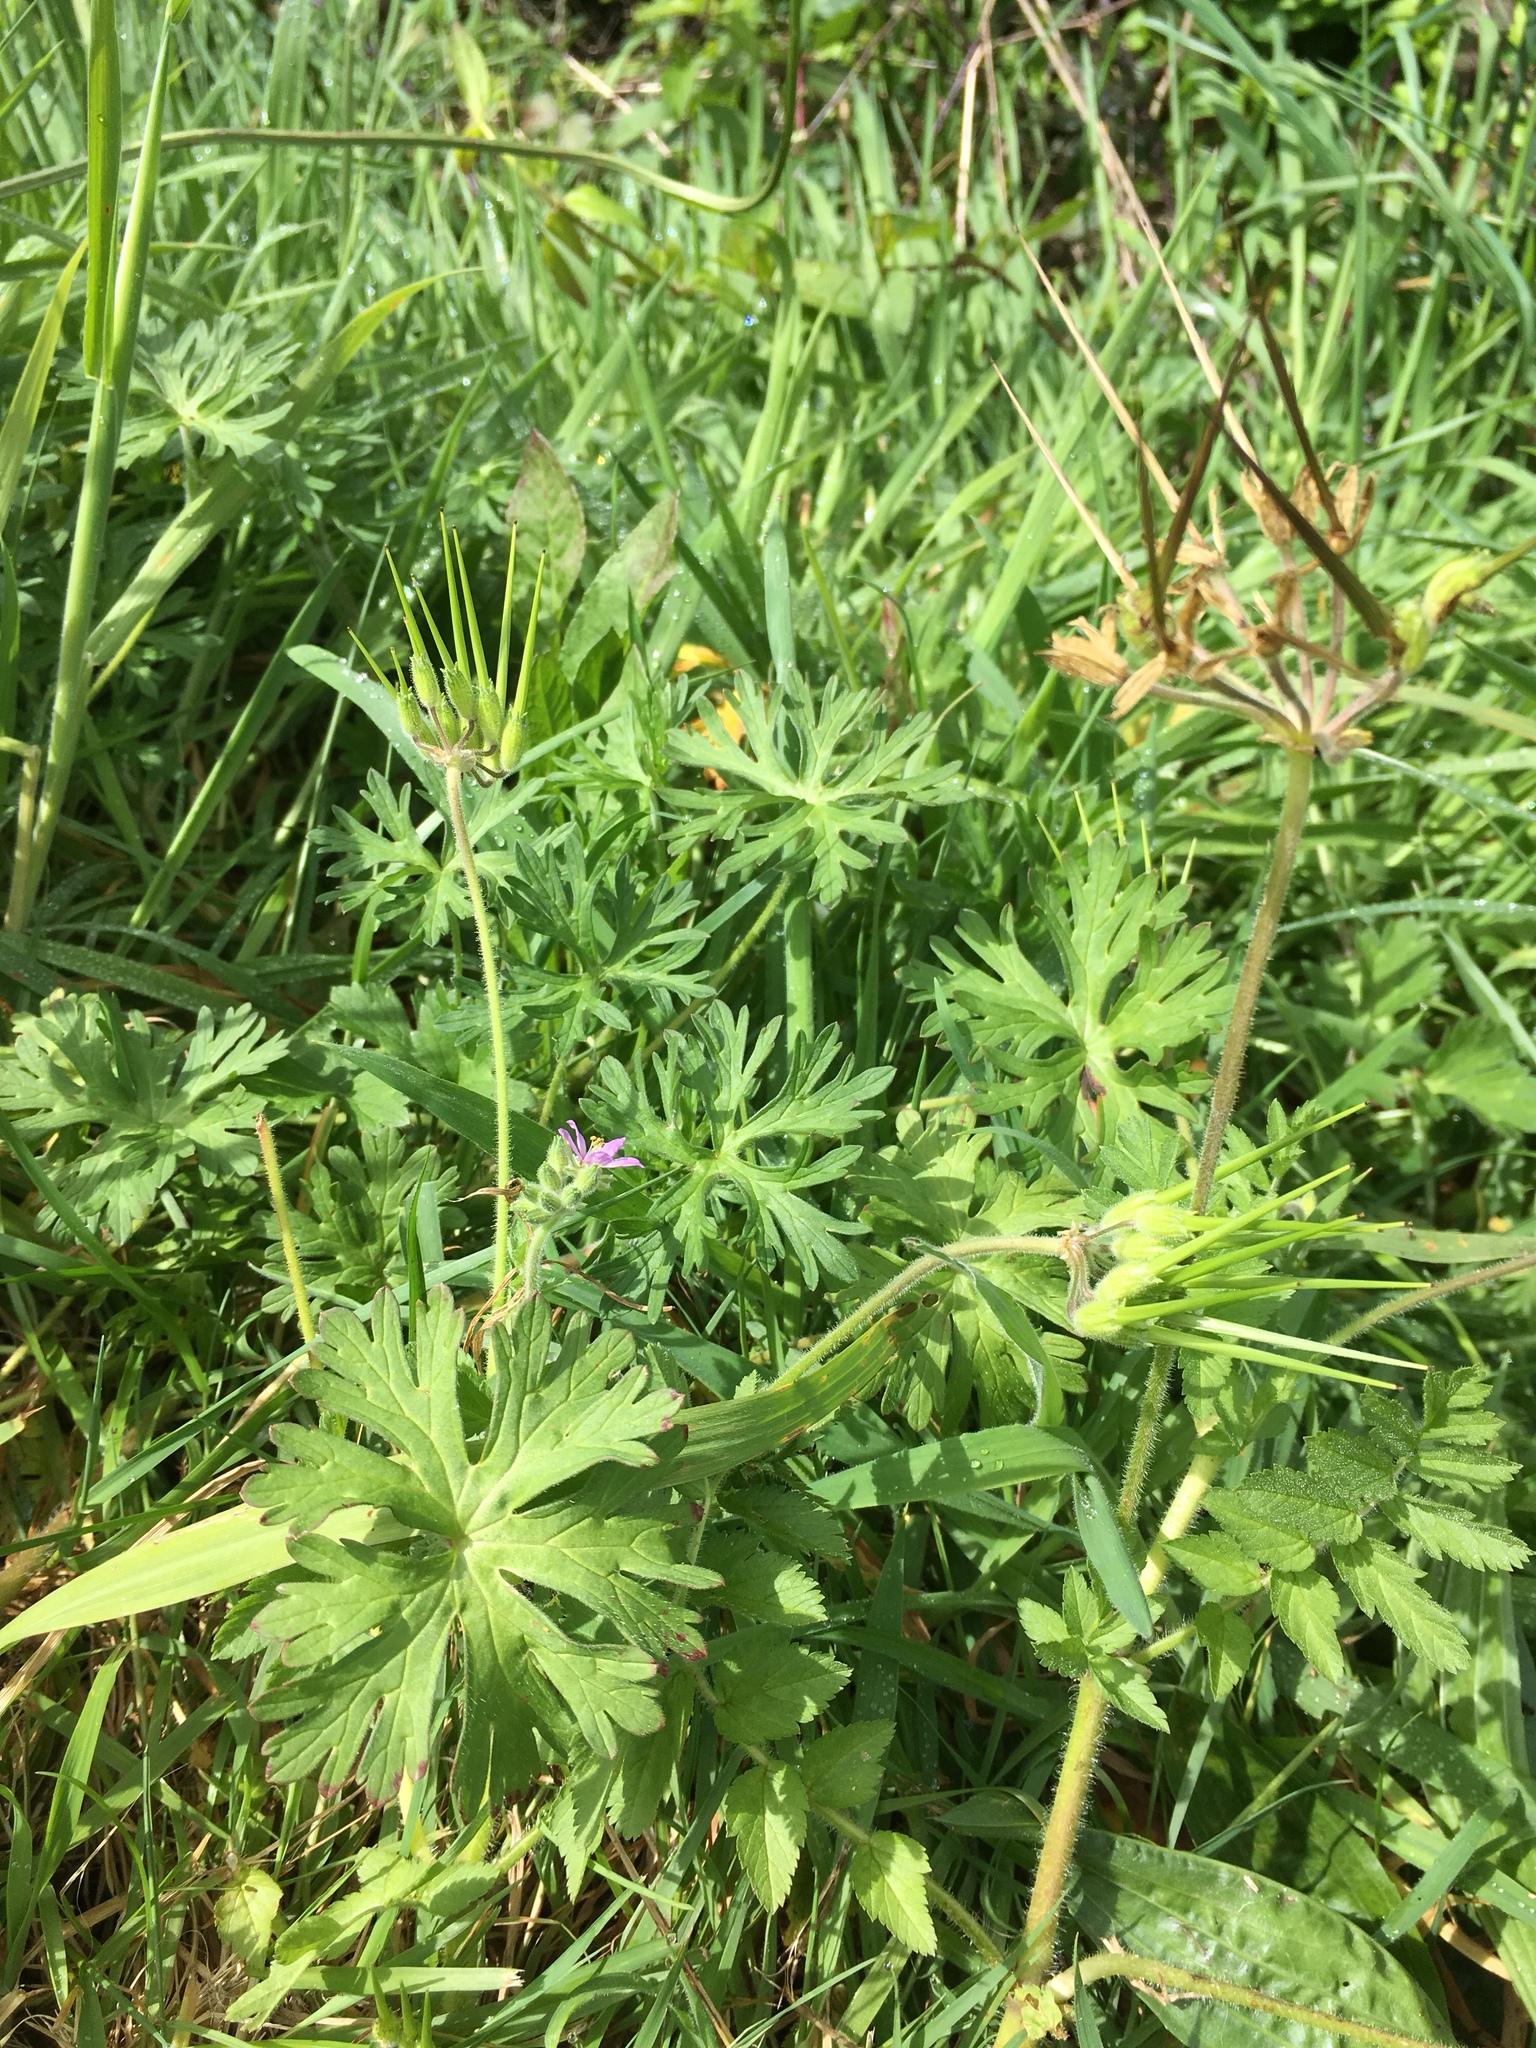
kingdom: Plantae
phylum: Tracheophyta
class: Magnoliopsida
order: Geraniales
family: Geraniaceae
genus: Geranium
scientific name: Geranium dissectum
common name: Cut-leaved crane's-bill
